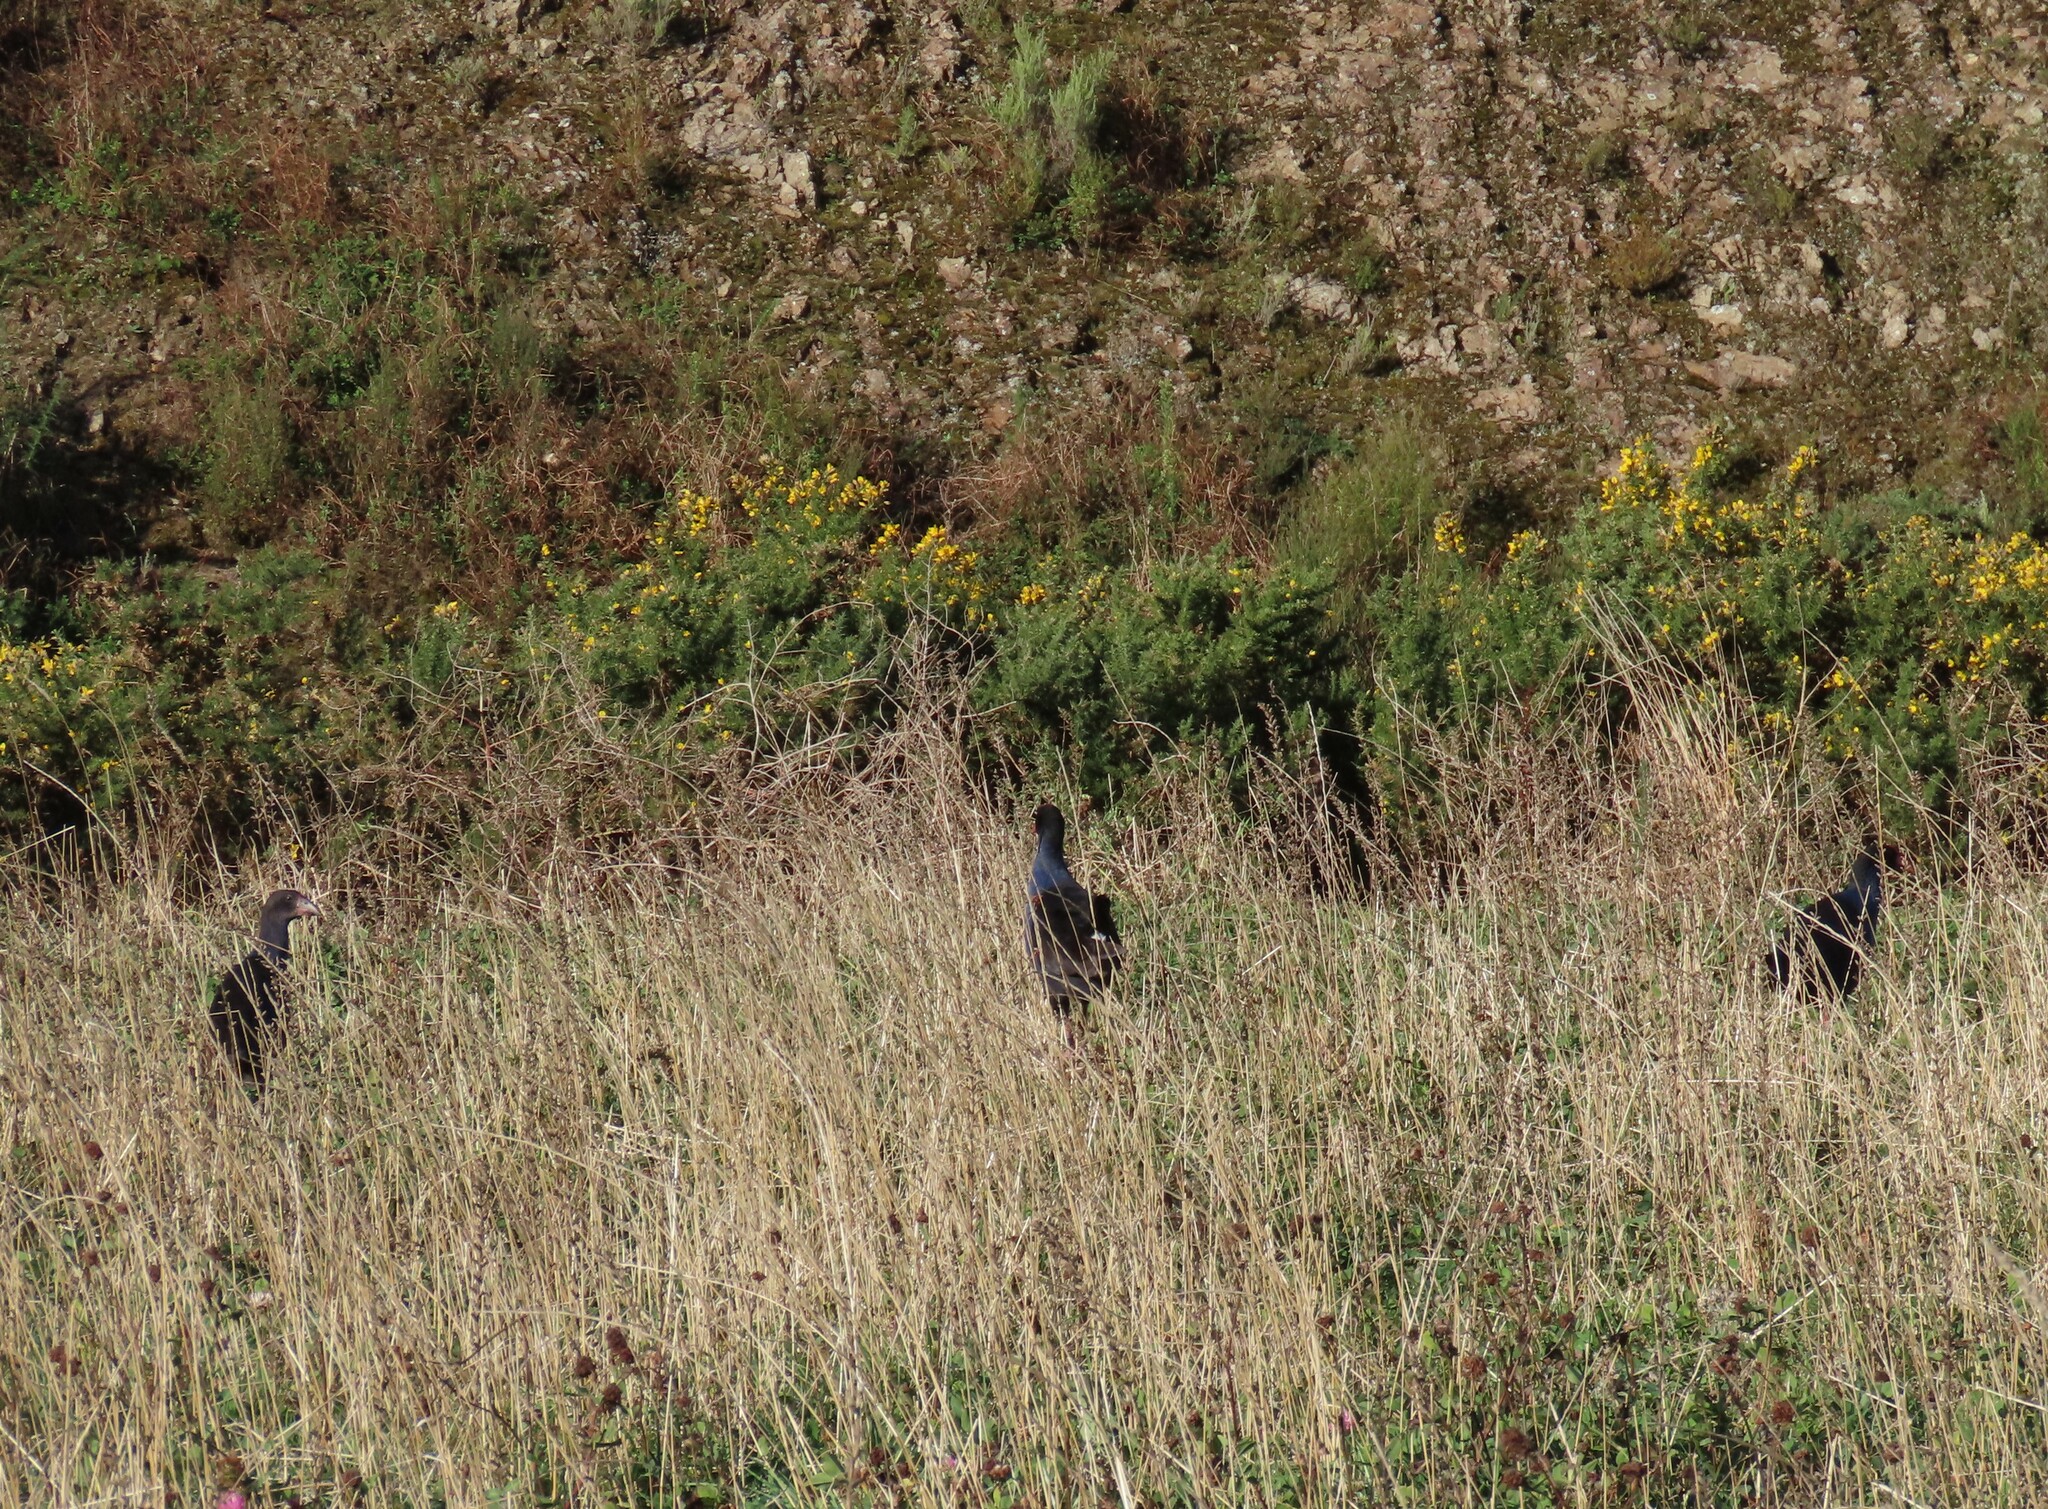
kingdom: Animalia
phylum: Chordata
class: Aves
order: Gruiformes
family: Rallidae
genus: Porphyrio
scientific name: Porphyrio melanotus
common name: Australasian swamphen
